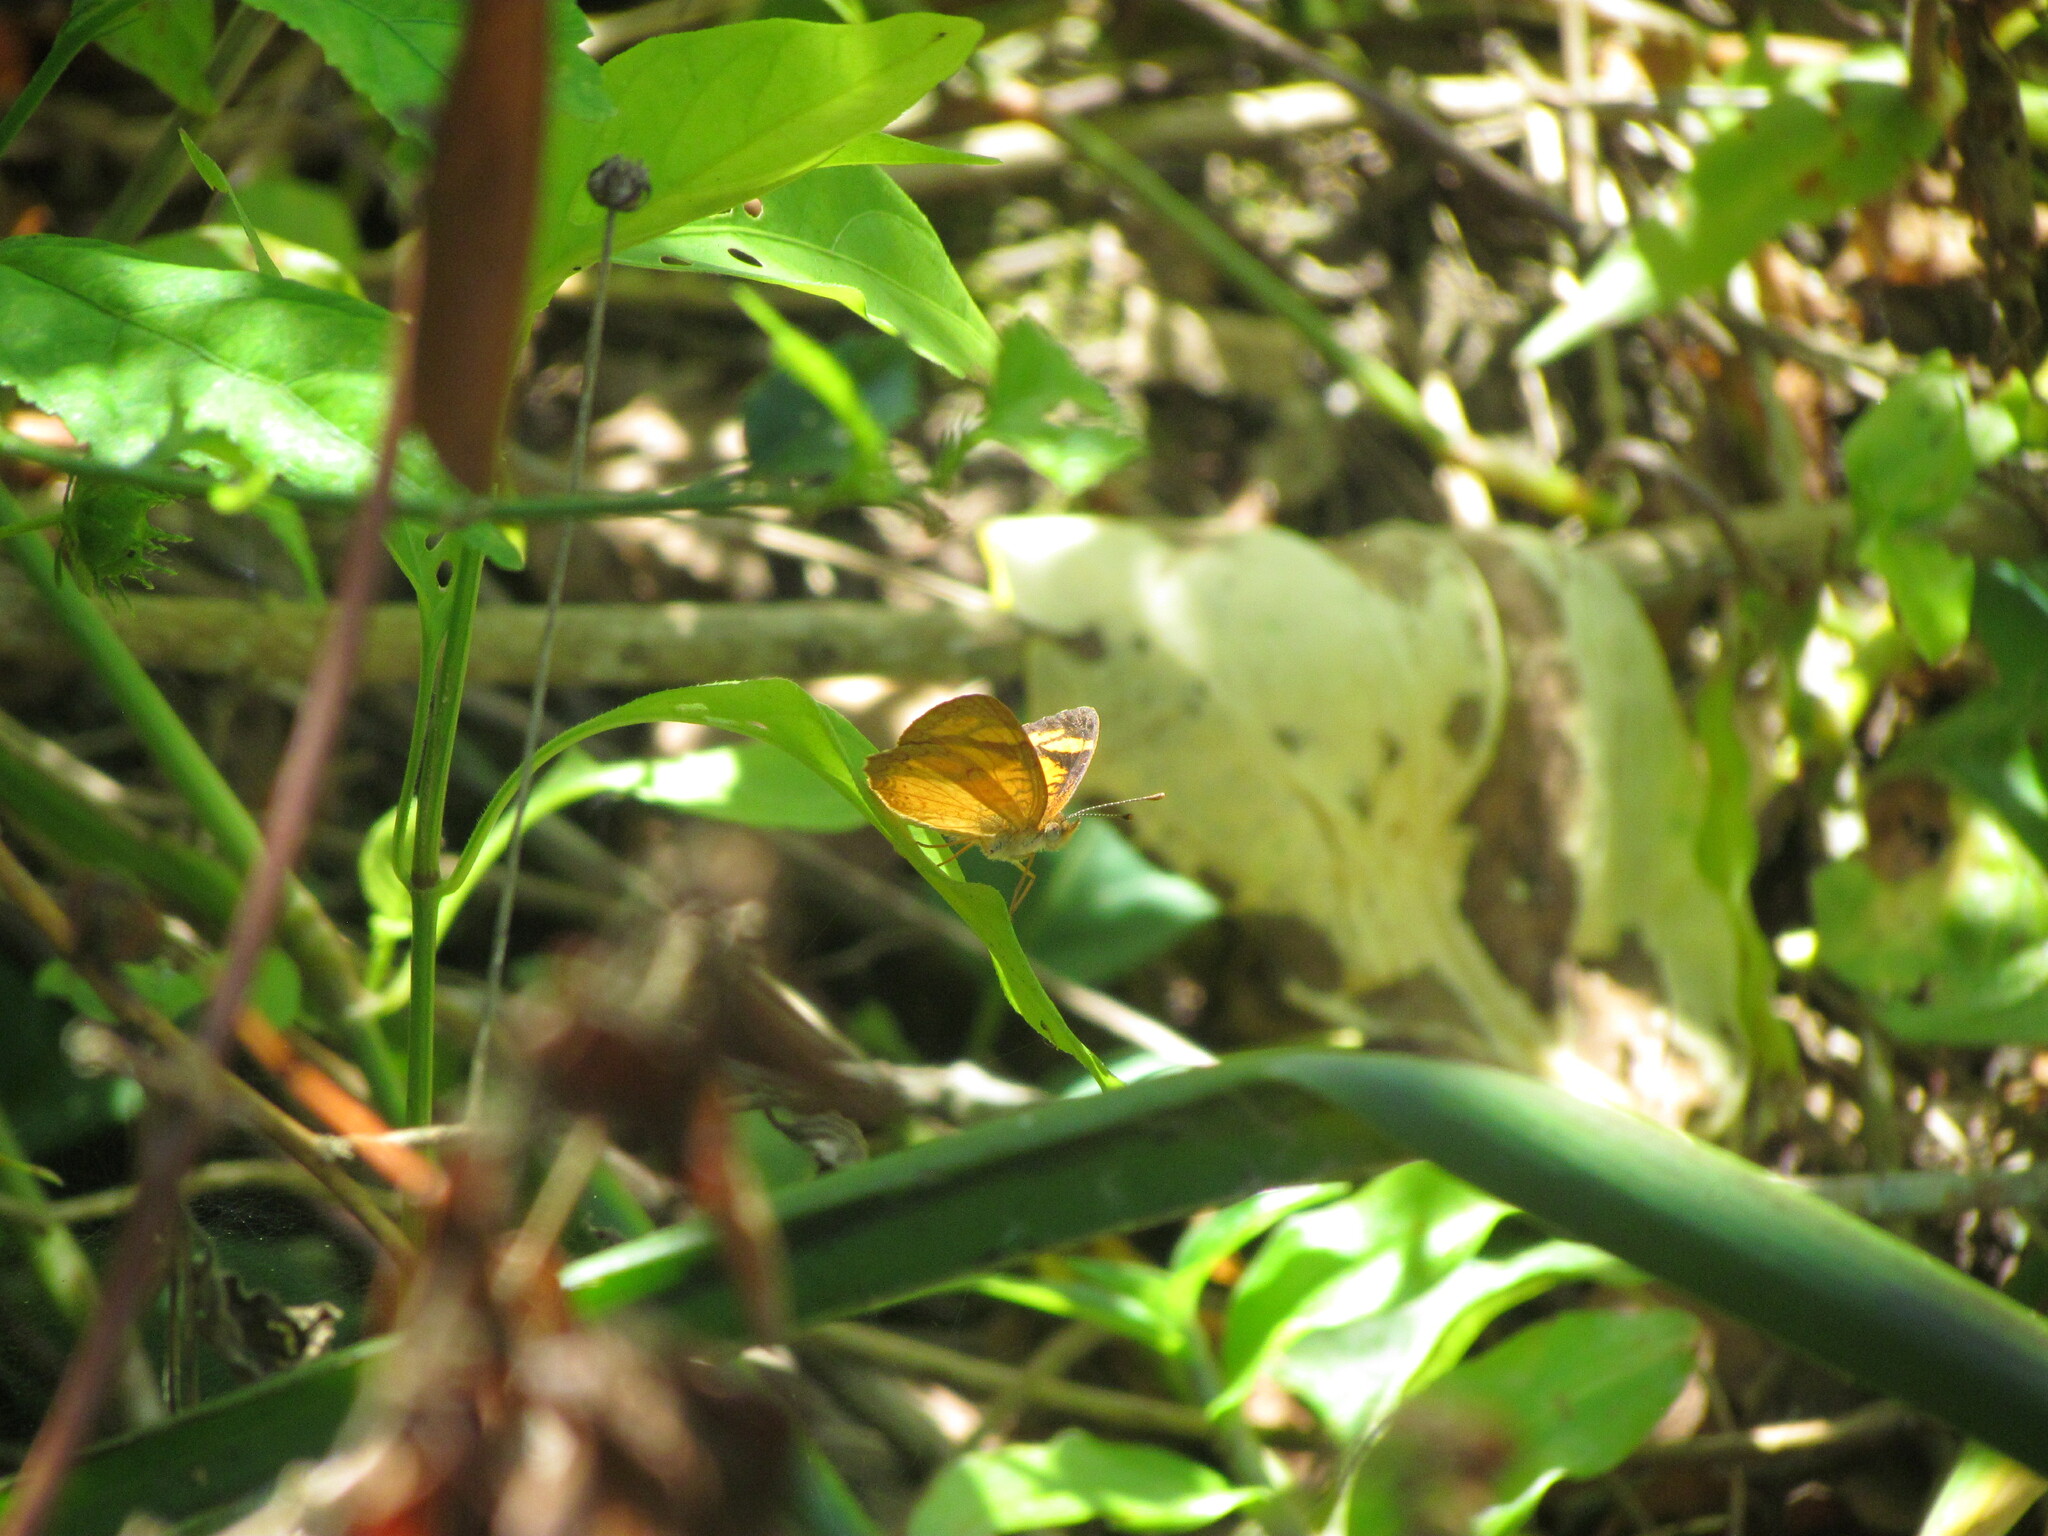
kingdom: Animalia
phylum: Arthropoda
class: Insecta
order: Lepidoptera
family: Nymphalidae
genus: Tegosa
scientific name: Tegosa claudina
